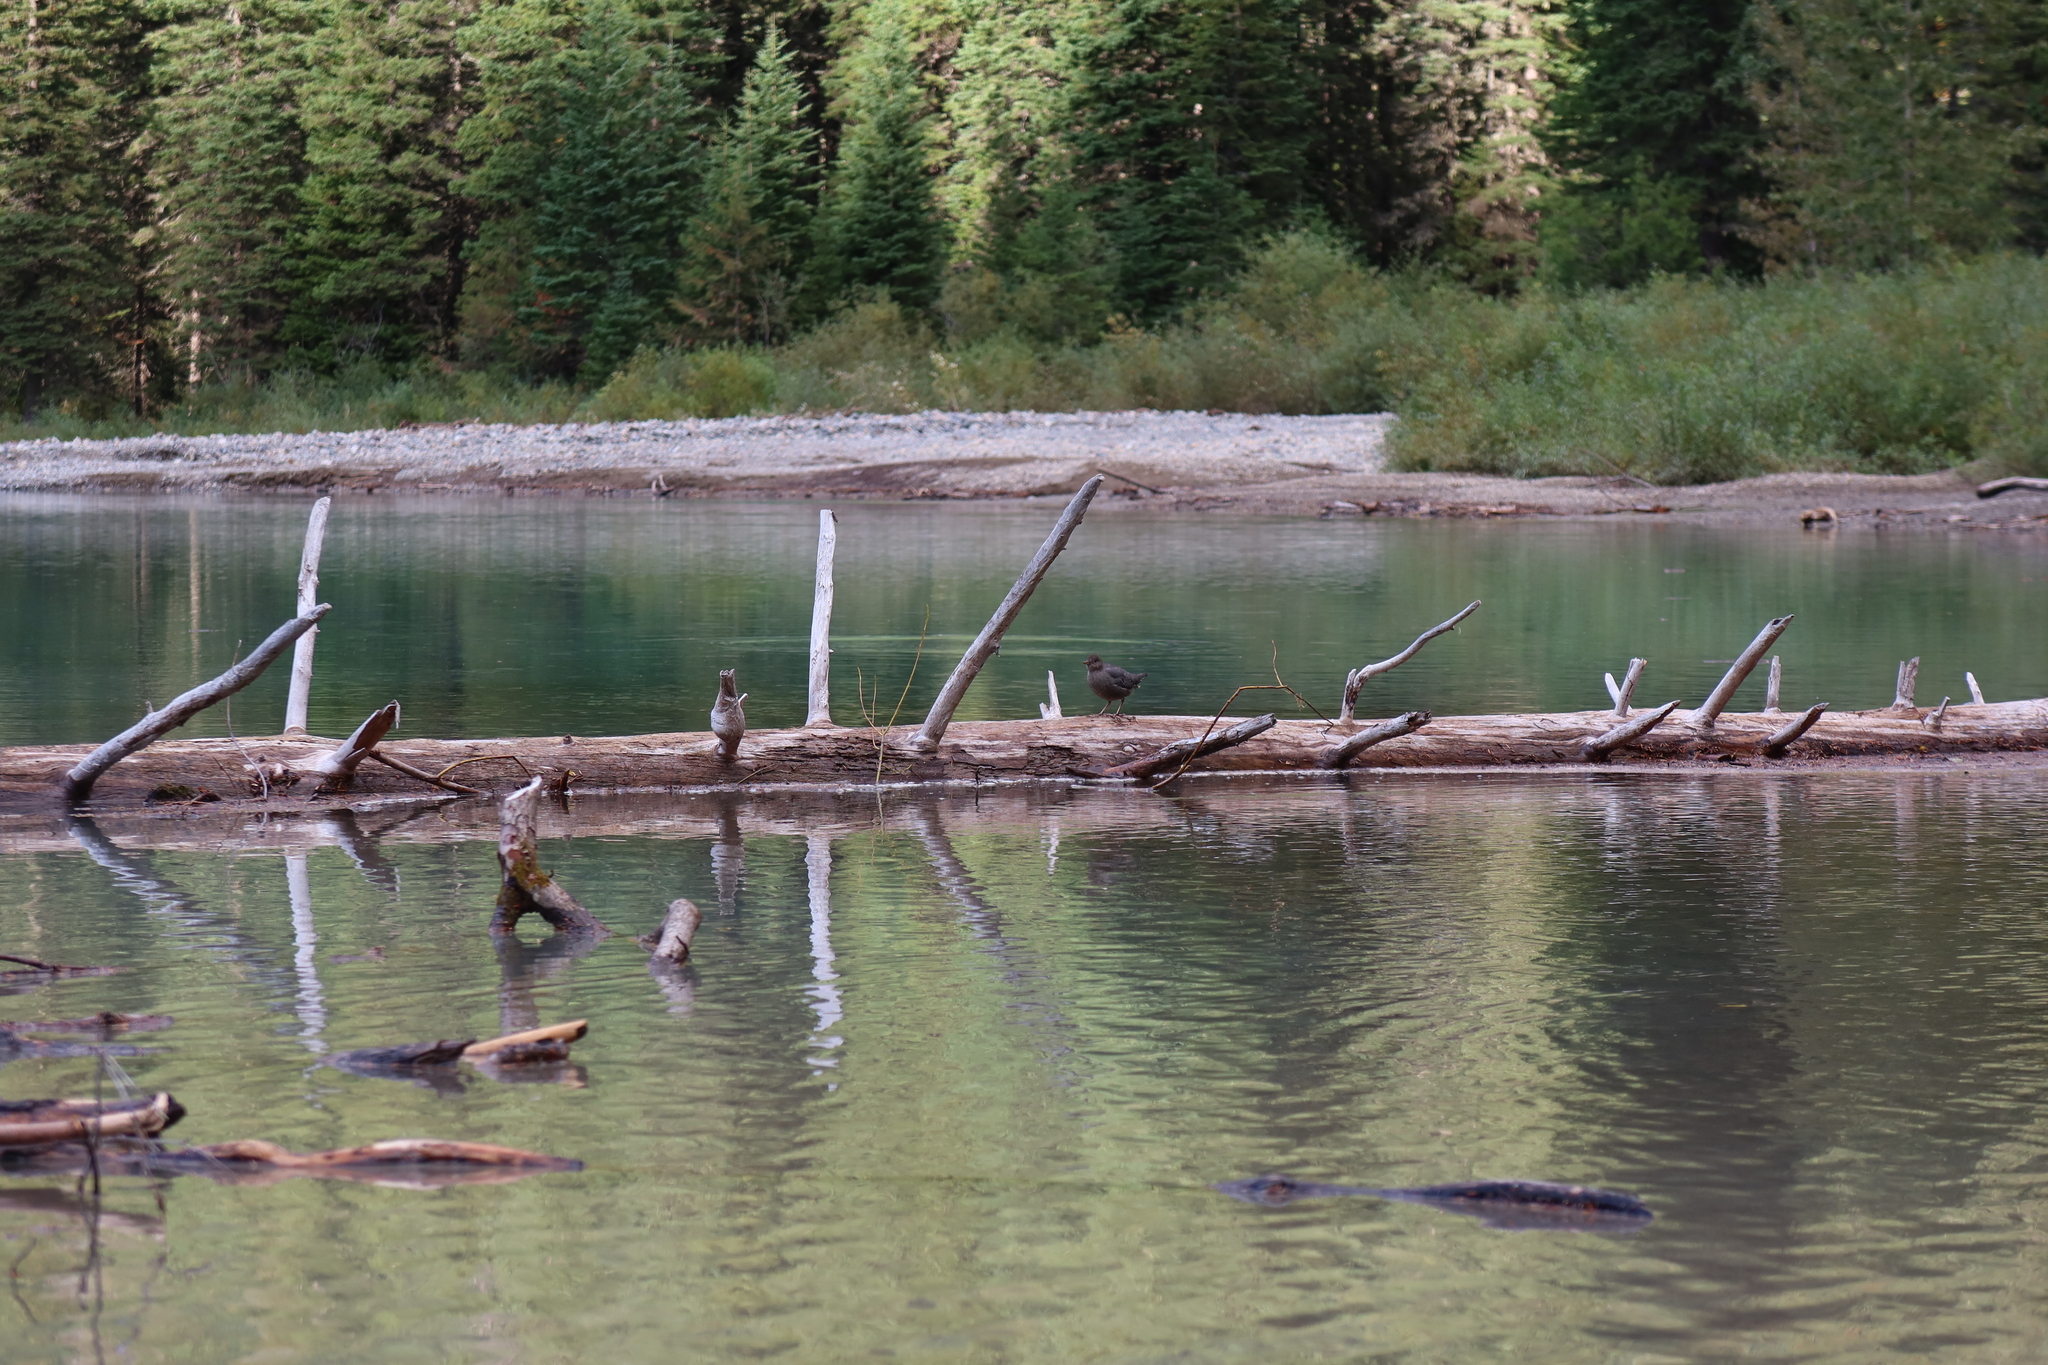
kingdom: Animalia
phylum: Chordata
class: Aves
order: Passeriformes
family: Cinclidae
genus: Cinclus
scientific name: Cinclus mexicanus
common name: American dipper
